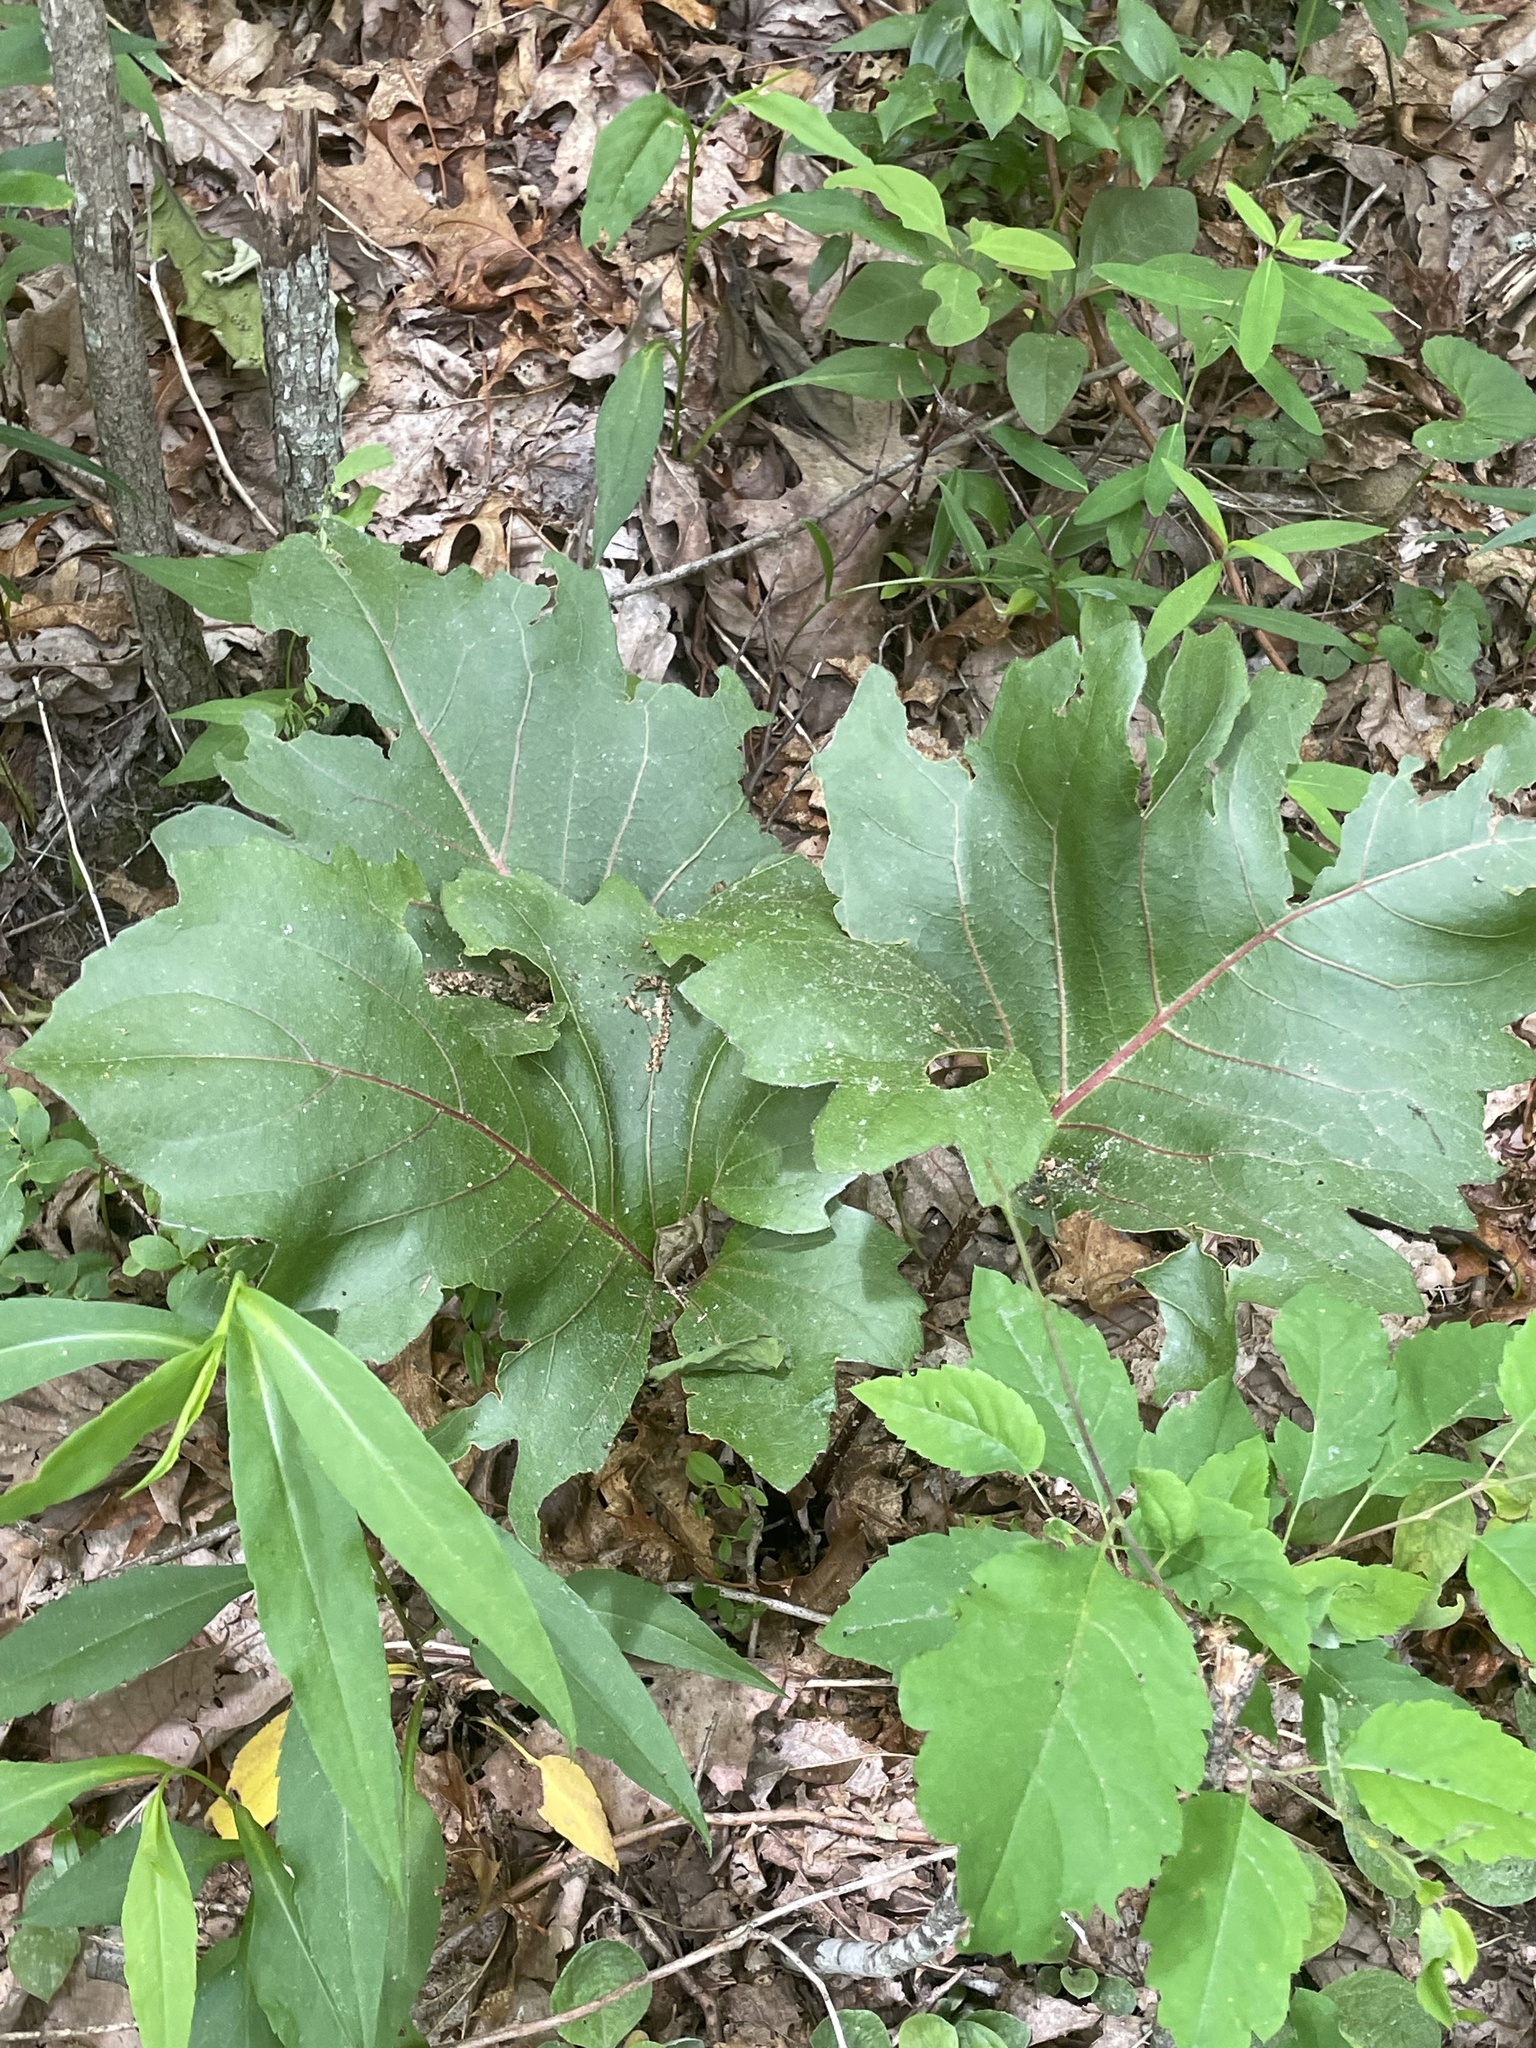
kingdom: Plantae
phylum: Tracheophyta
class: Magnoliopsida
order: Asterales
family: Asteraceae
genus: Silphium
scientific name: Silphium compositum
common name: Lesser basal-leaf rosinweed
